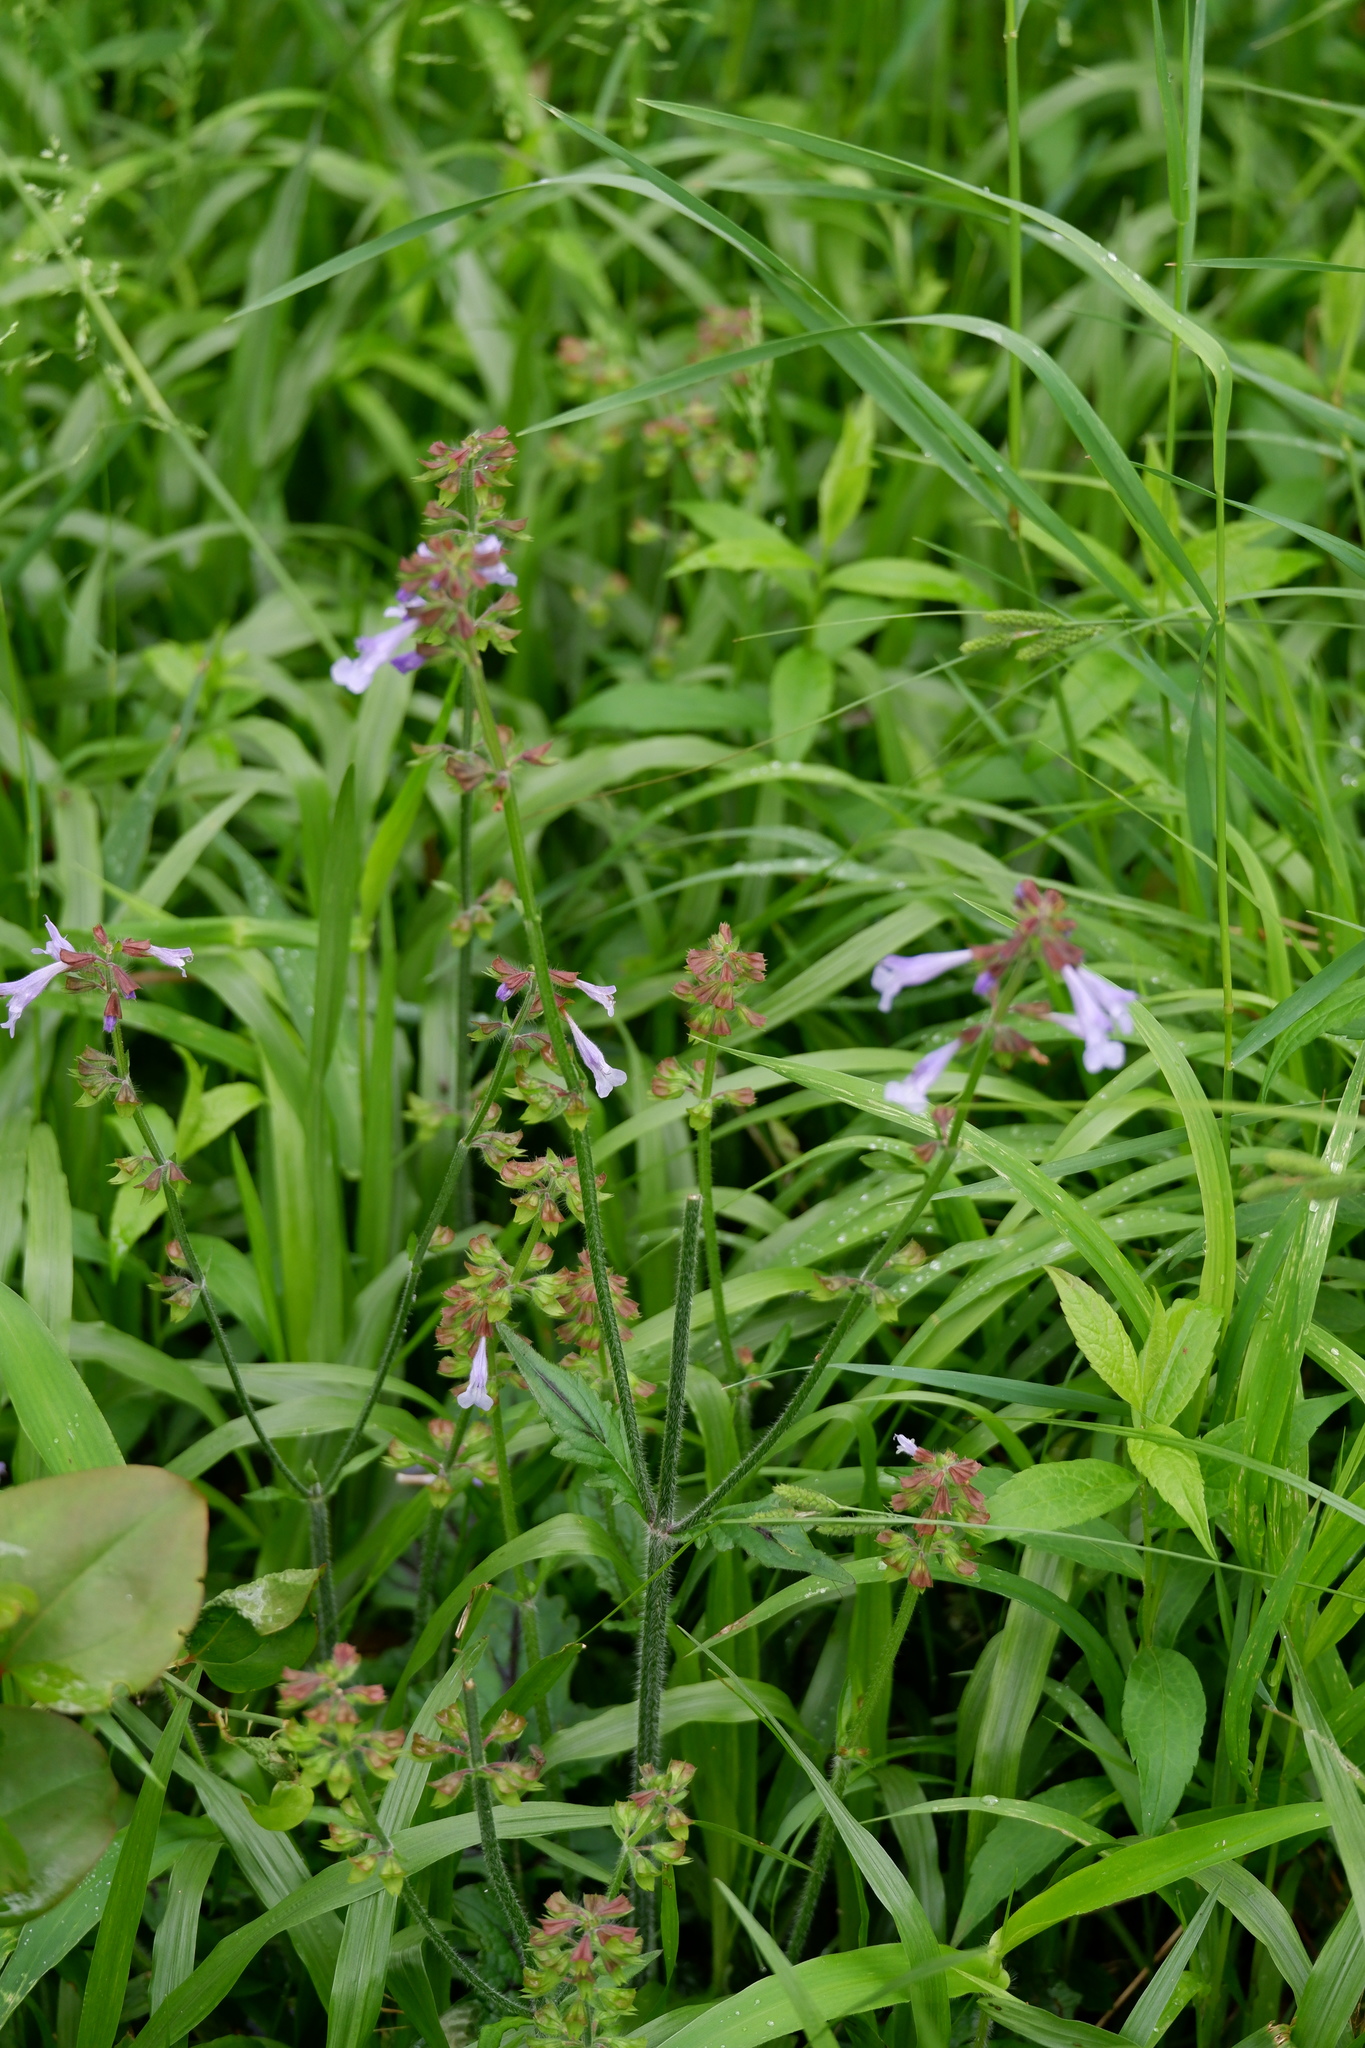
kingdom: Plantae
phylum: Tracheophyta
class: Magnoliopsida
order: Lamiales
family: Lamiaceae
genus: Salvia
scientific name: Salvia lyrata
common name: Cancerweed
